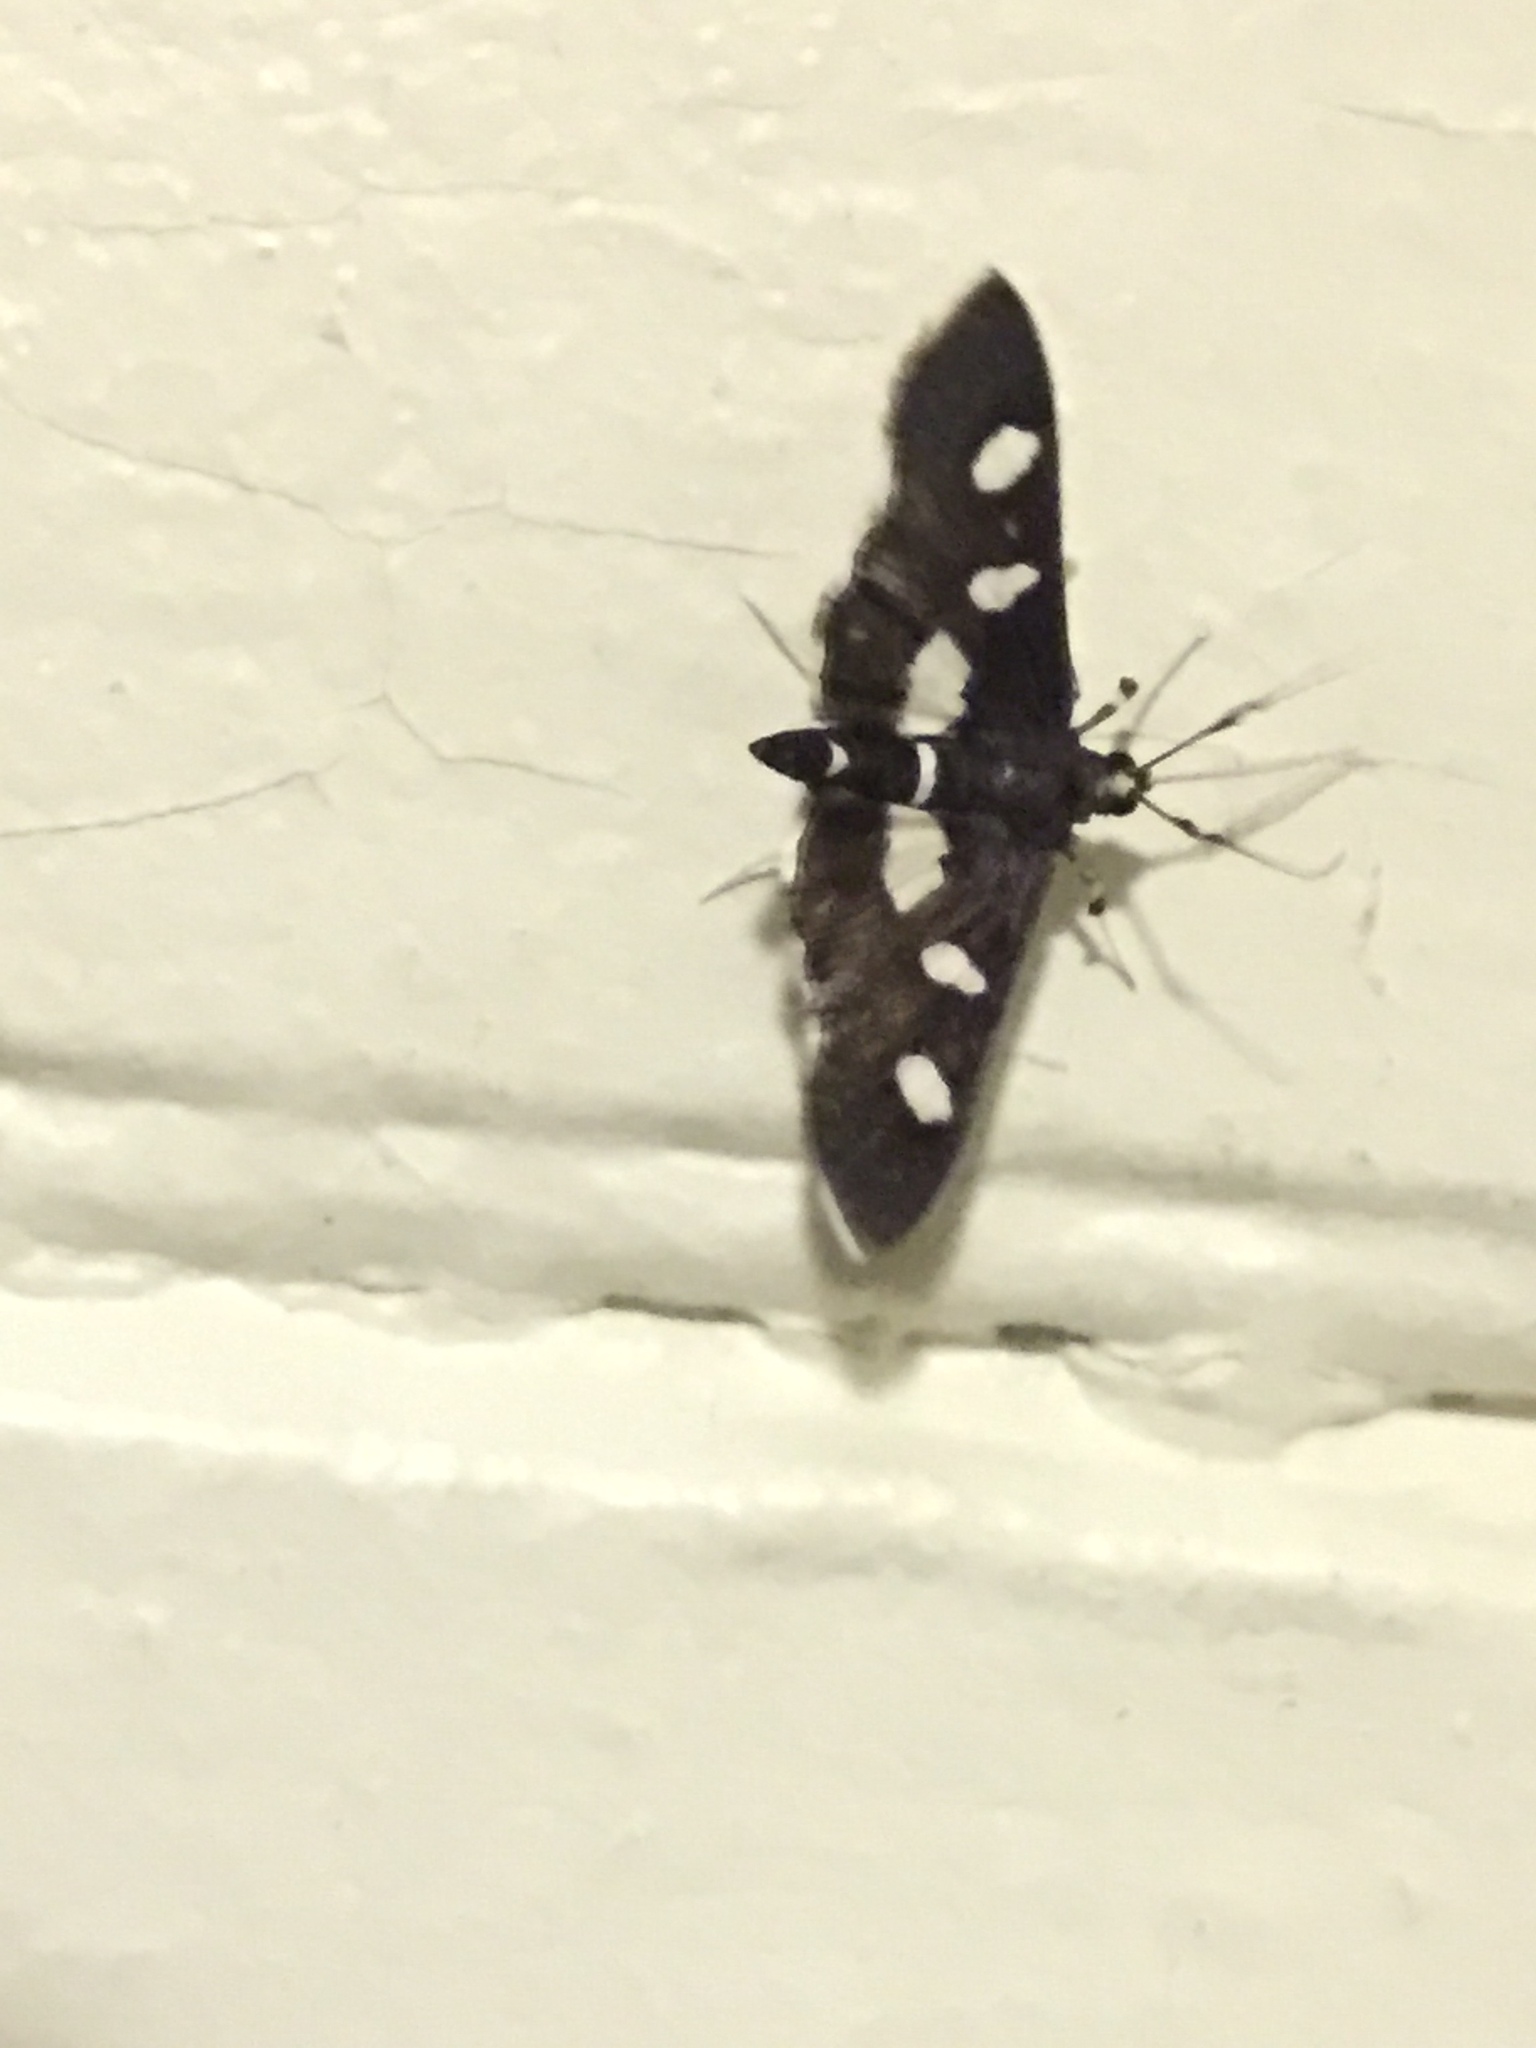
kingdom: Animalia
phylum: Arthropoda
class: Insecta
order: Lepidoptera
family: Crambidae
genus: Desmia
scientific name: Desmia
